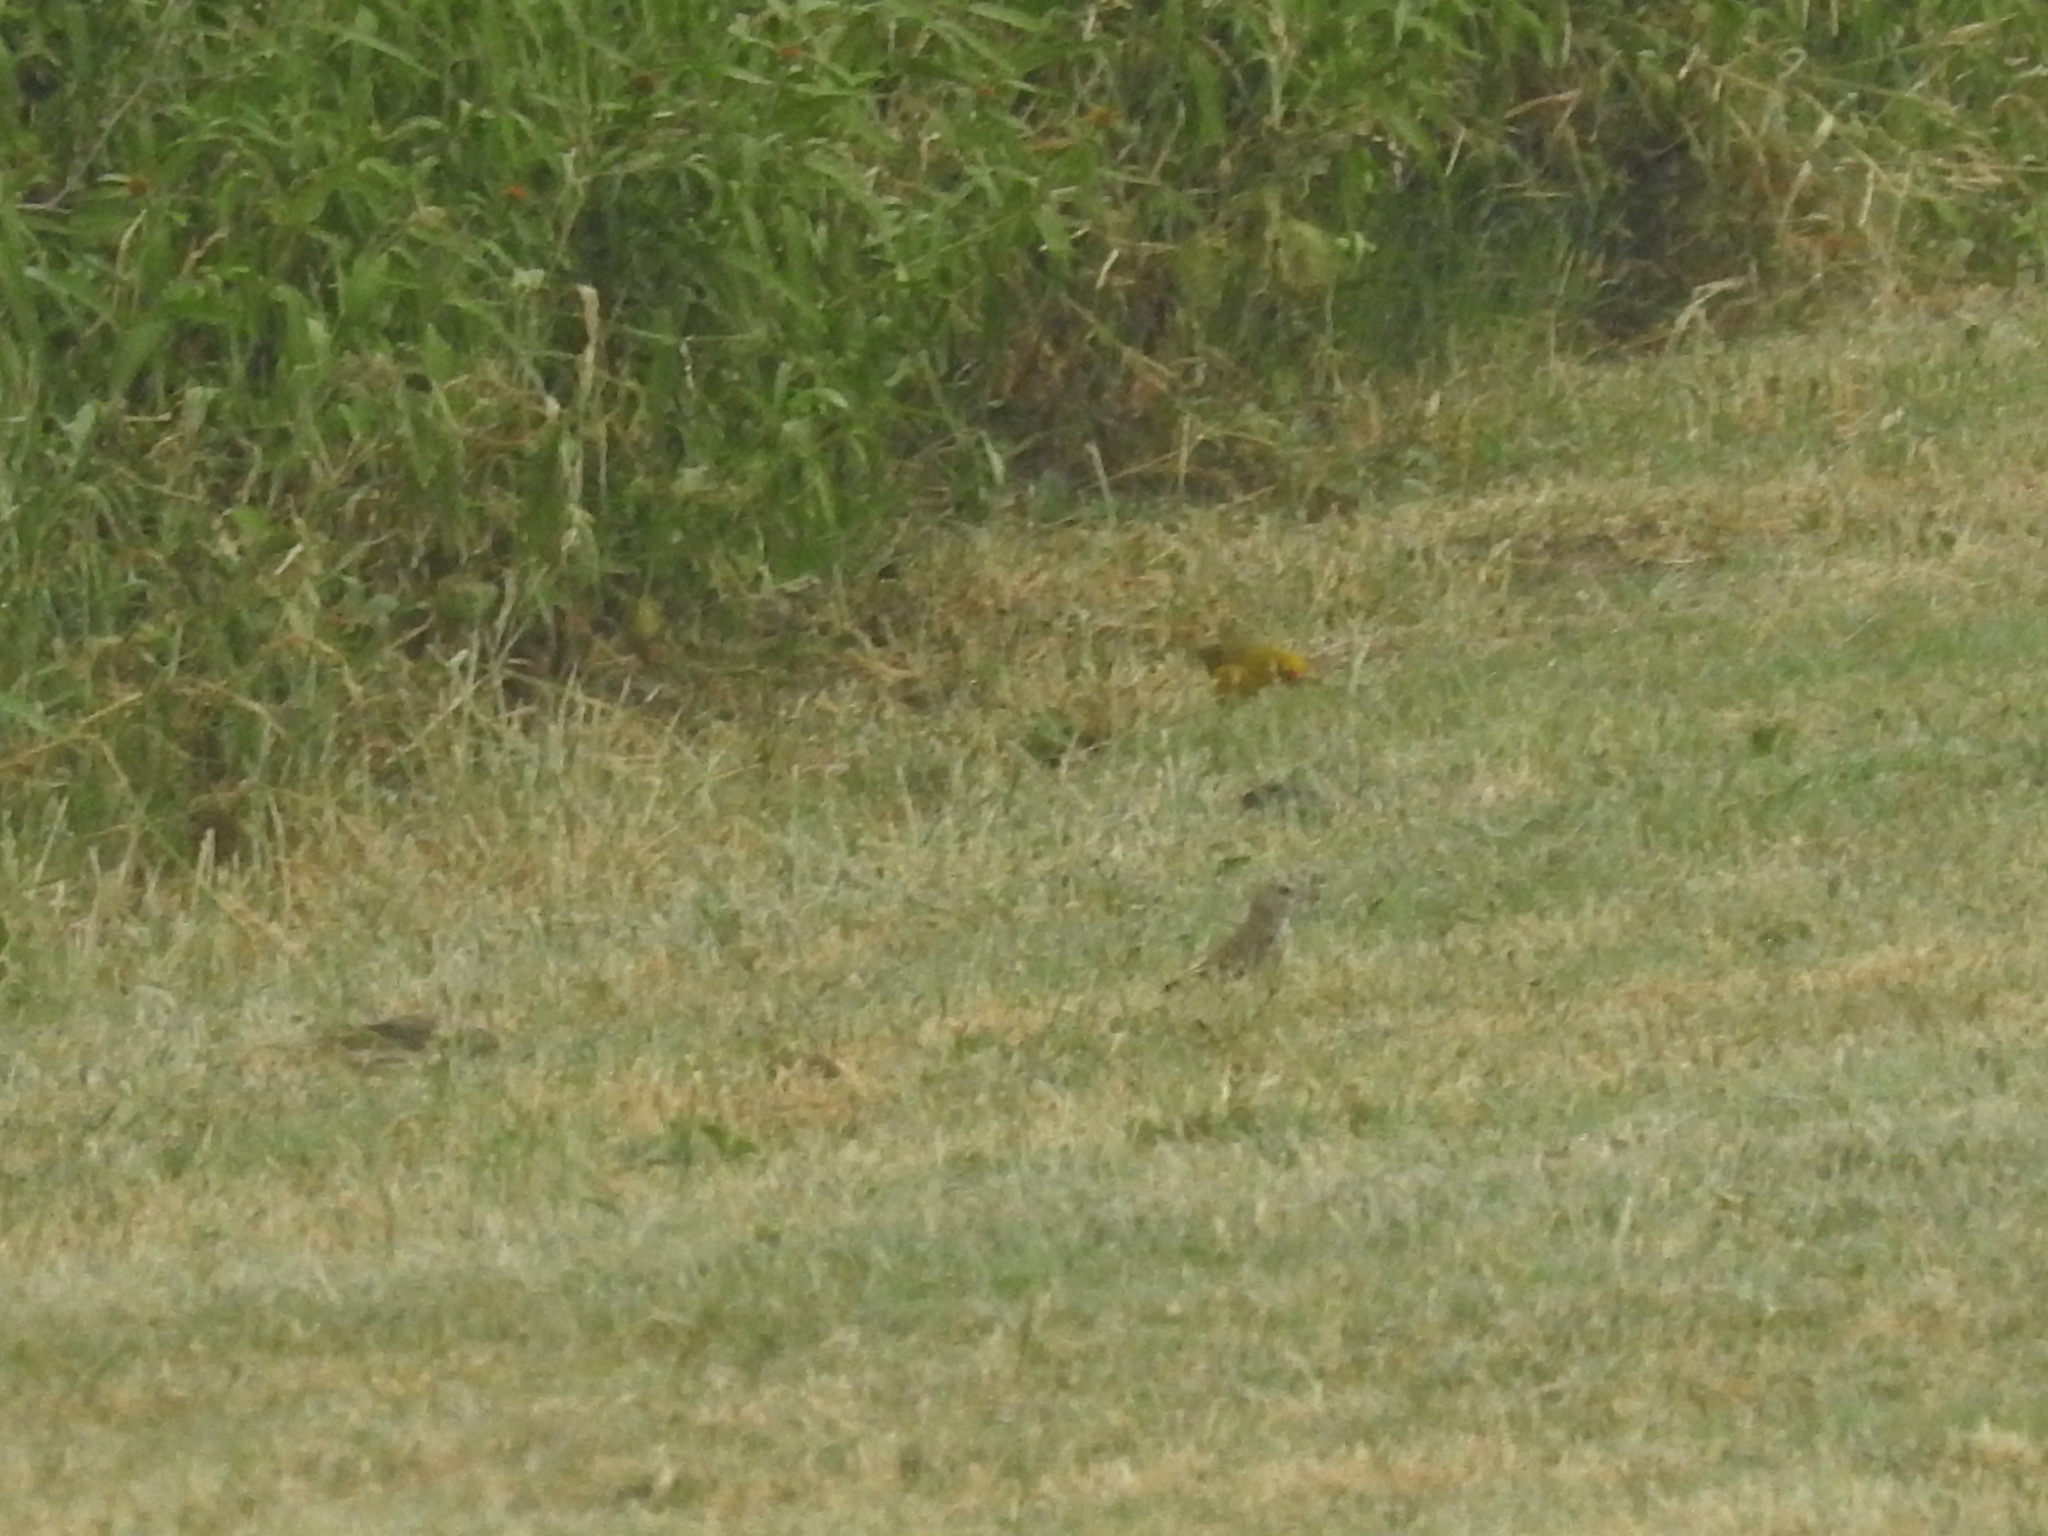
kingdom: Animalia
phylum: Chordata
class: Aves
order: Passeriformes
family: Thraupidae
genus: Sicalis
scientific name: Sicalis flaveola
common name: Saffron finch
